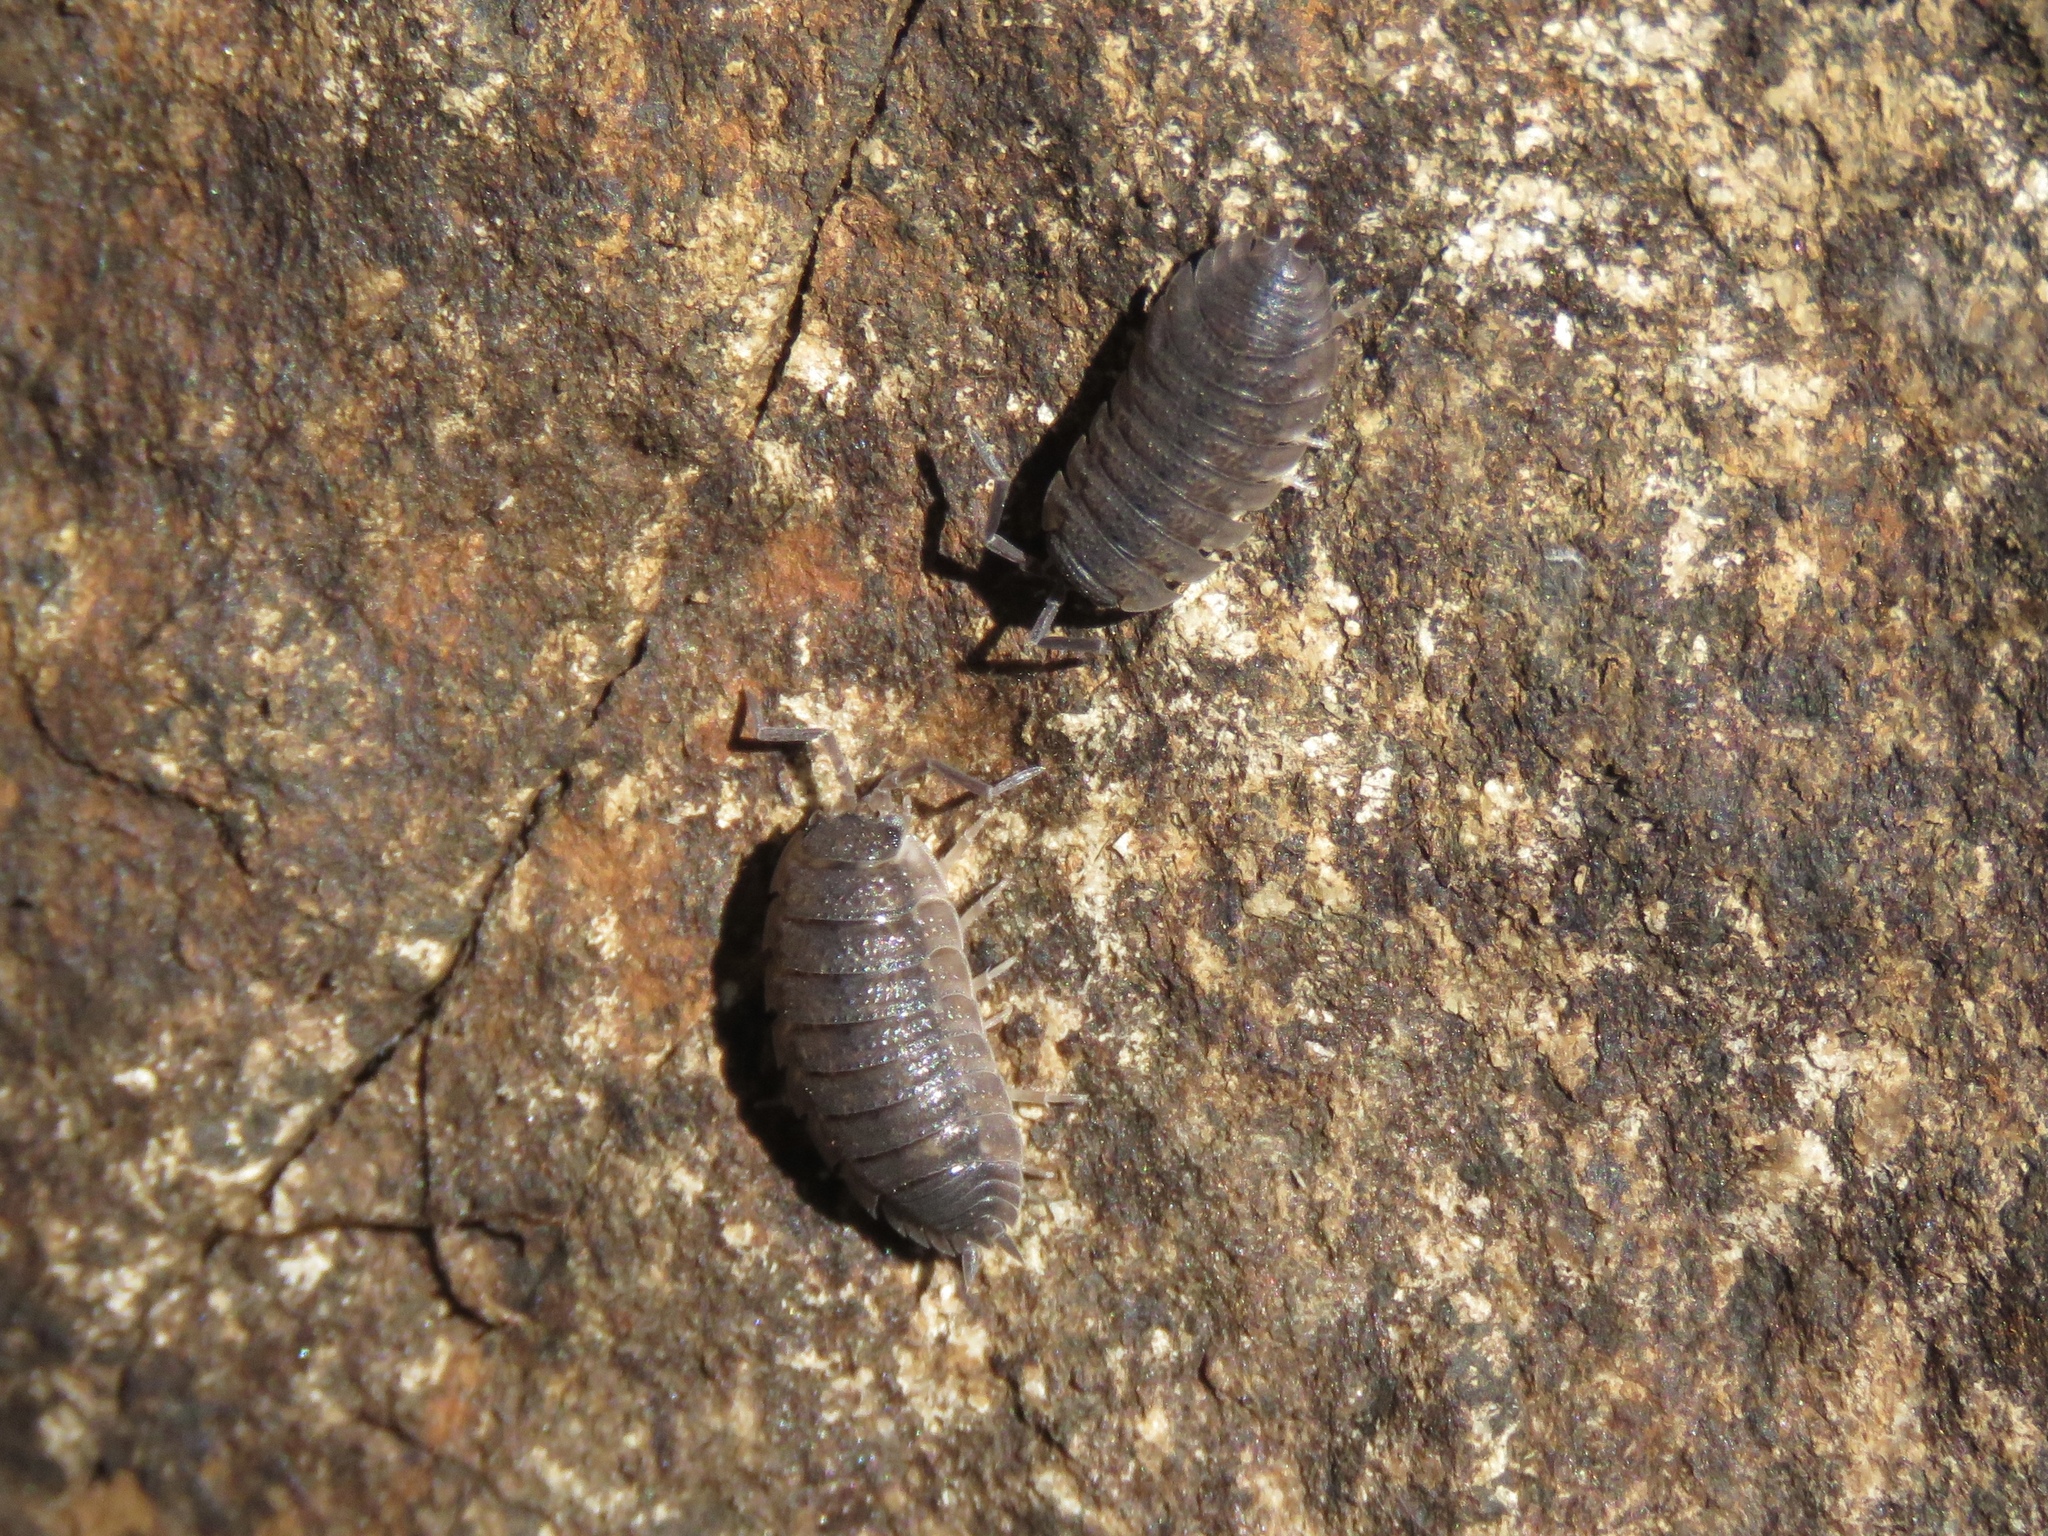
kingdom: Animalia
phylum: Arthropoda
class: Malacostraca
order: Isopoda
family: Porcellionidae
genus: Porcellio
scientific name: Porcellio scaber
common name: Common rough woodlouse
